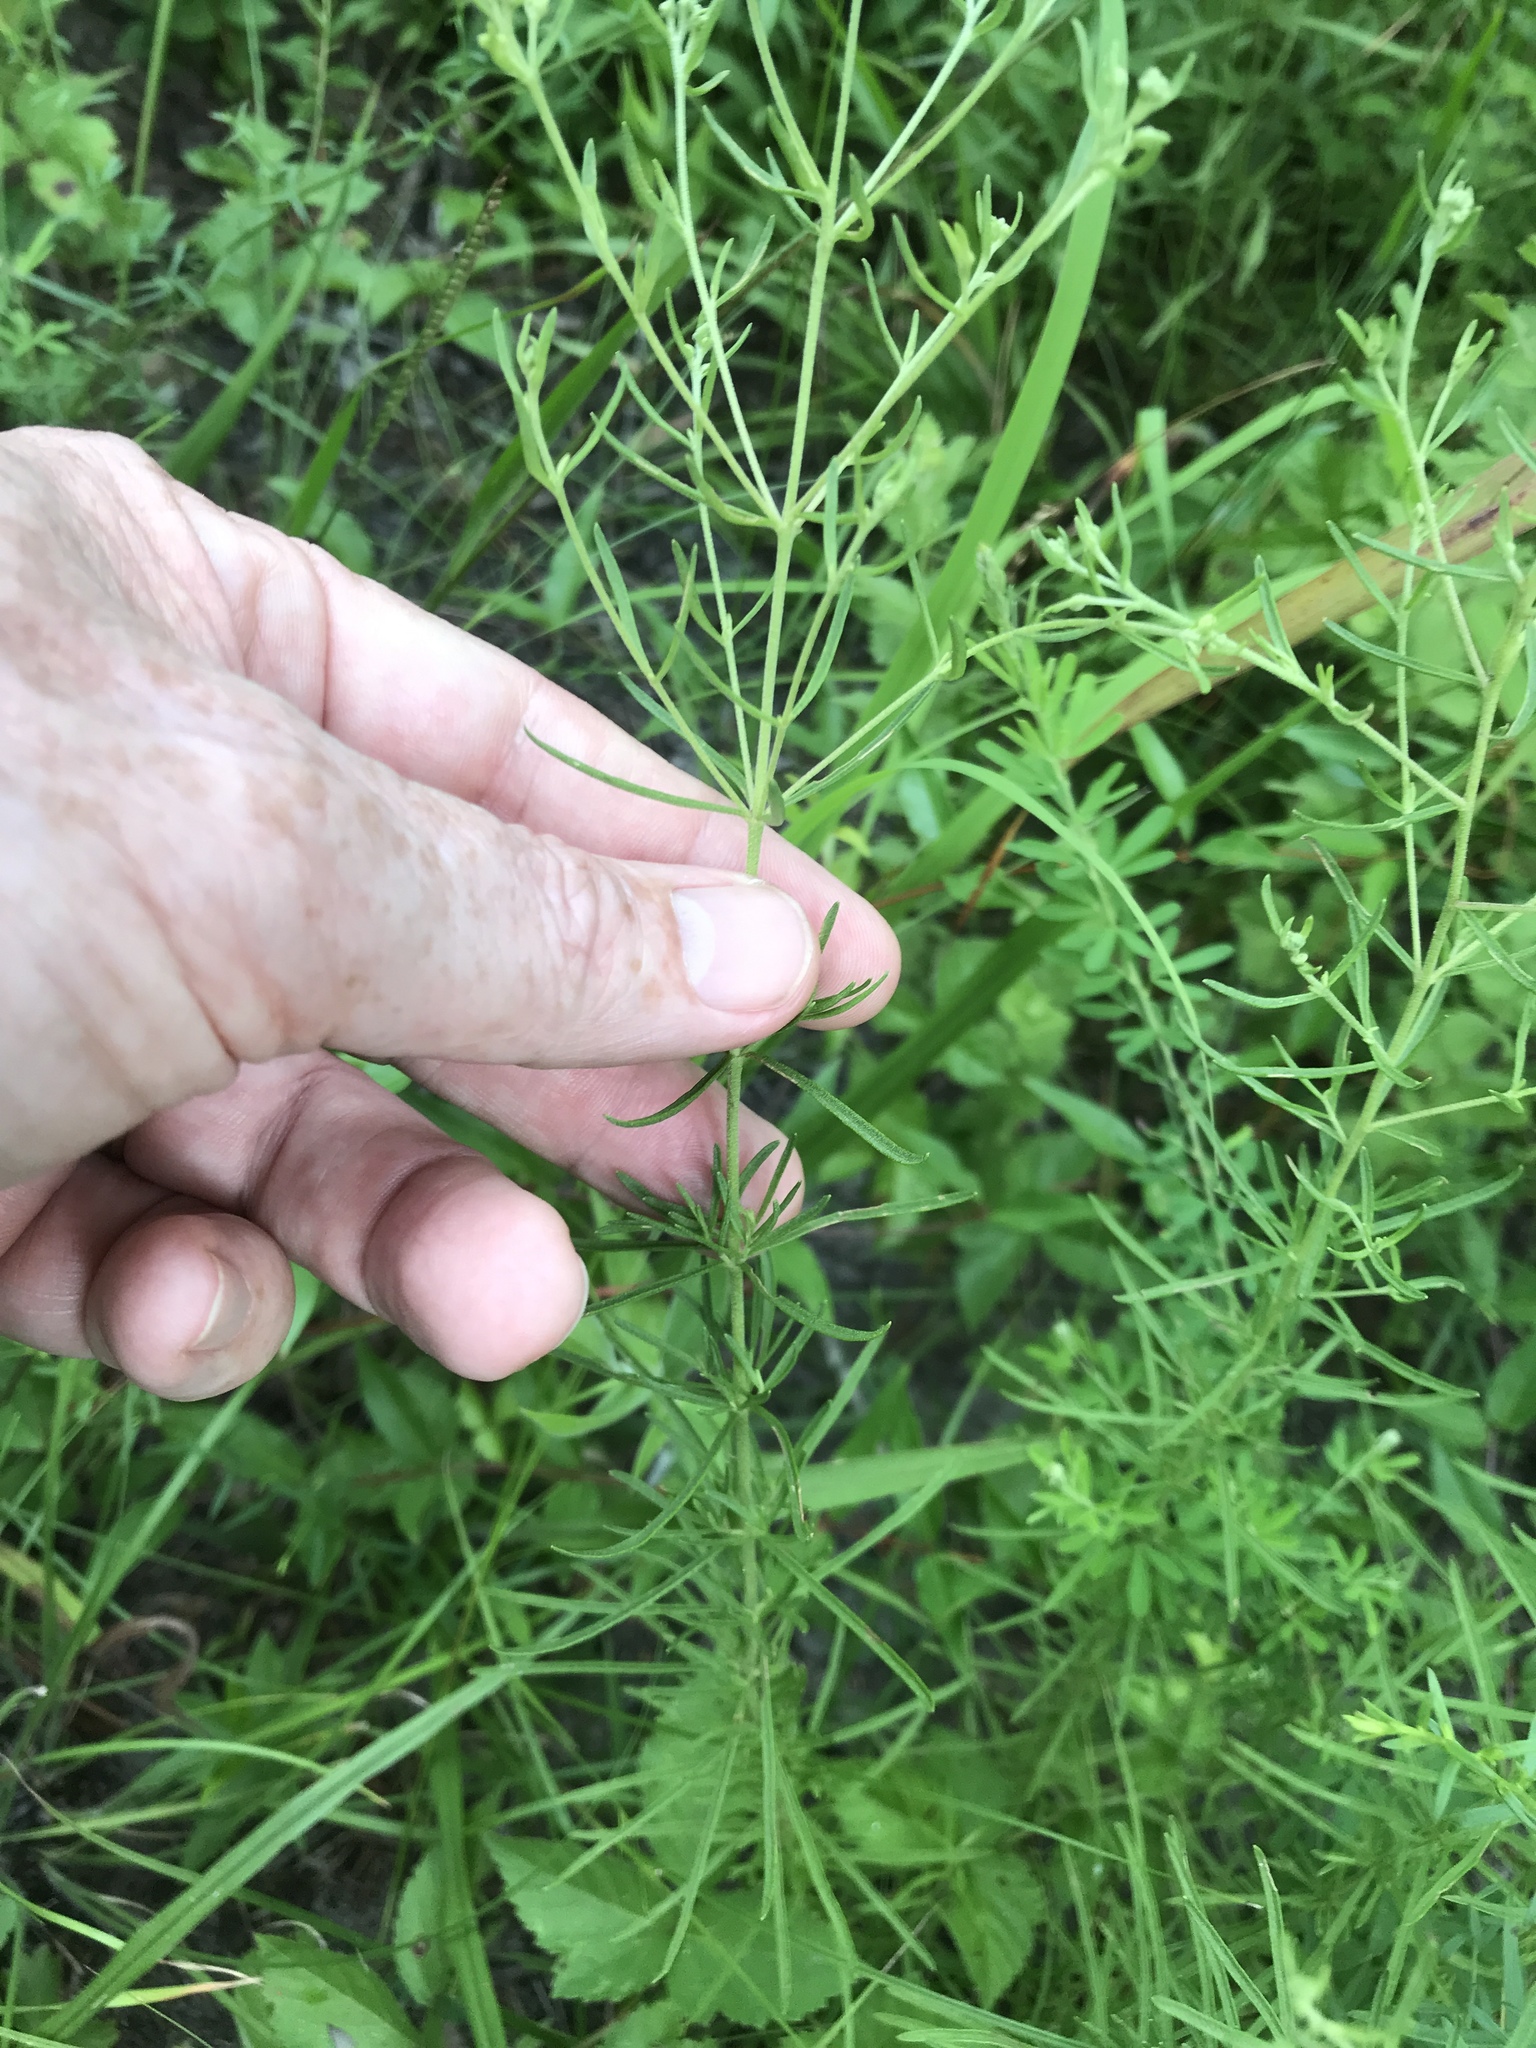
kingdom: Plantae
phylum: Tracheophyta
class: Magnoliopsida
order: Asterales
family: Asteraceae
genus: Eupatorium
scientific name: Eupatorium hyssopifolium
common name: Hyssop-leaf thoroughwort
